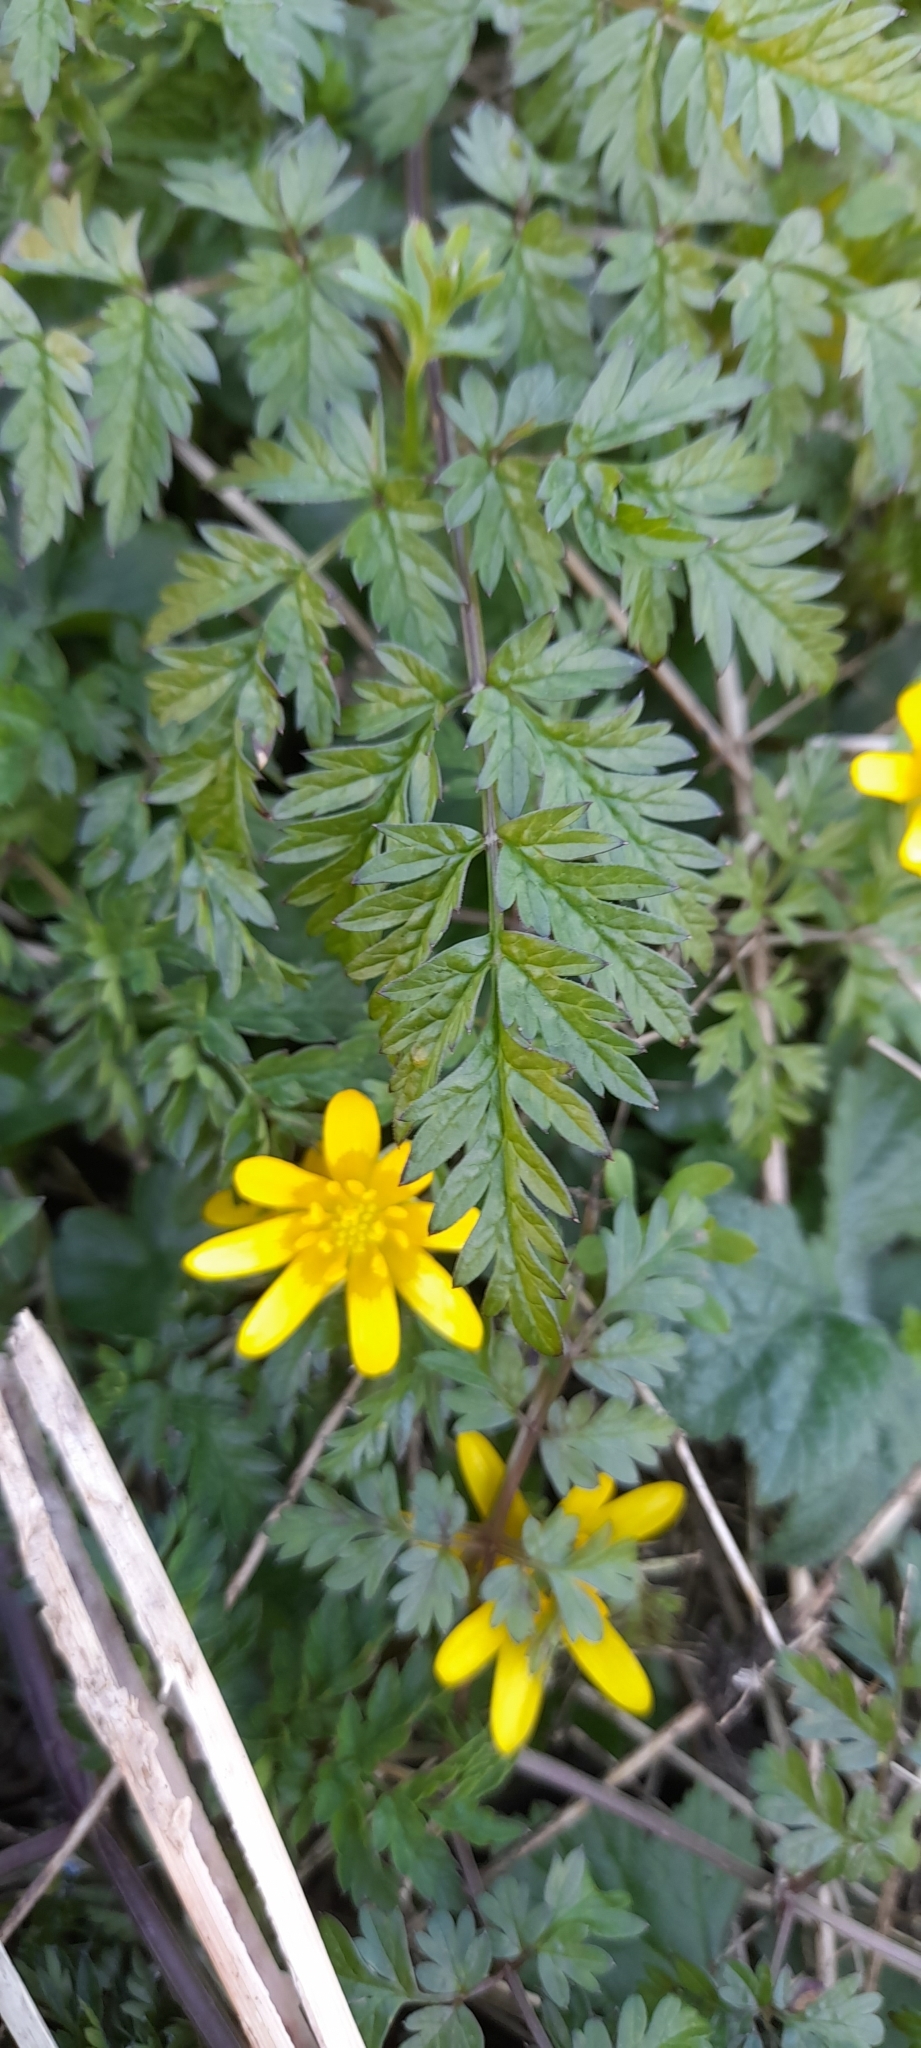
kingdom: Plantae
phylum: Tracheophyta
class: Magnoliopsida
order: Ranunculales
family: Ranunculaceae
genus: Ficaria
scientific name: Ficaria verna
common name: Lesser celandine
